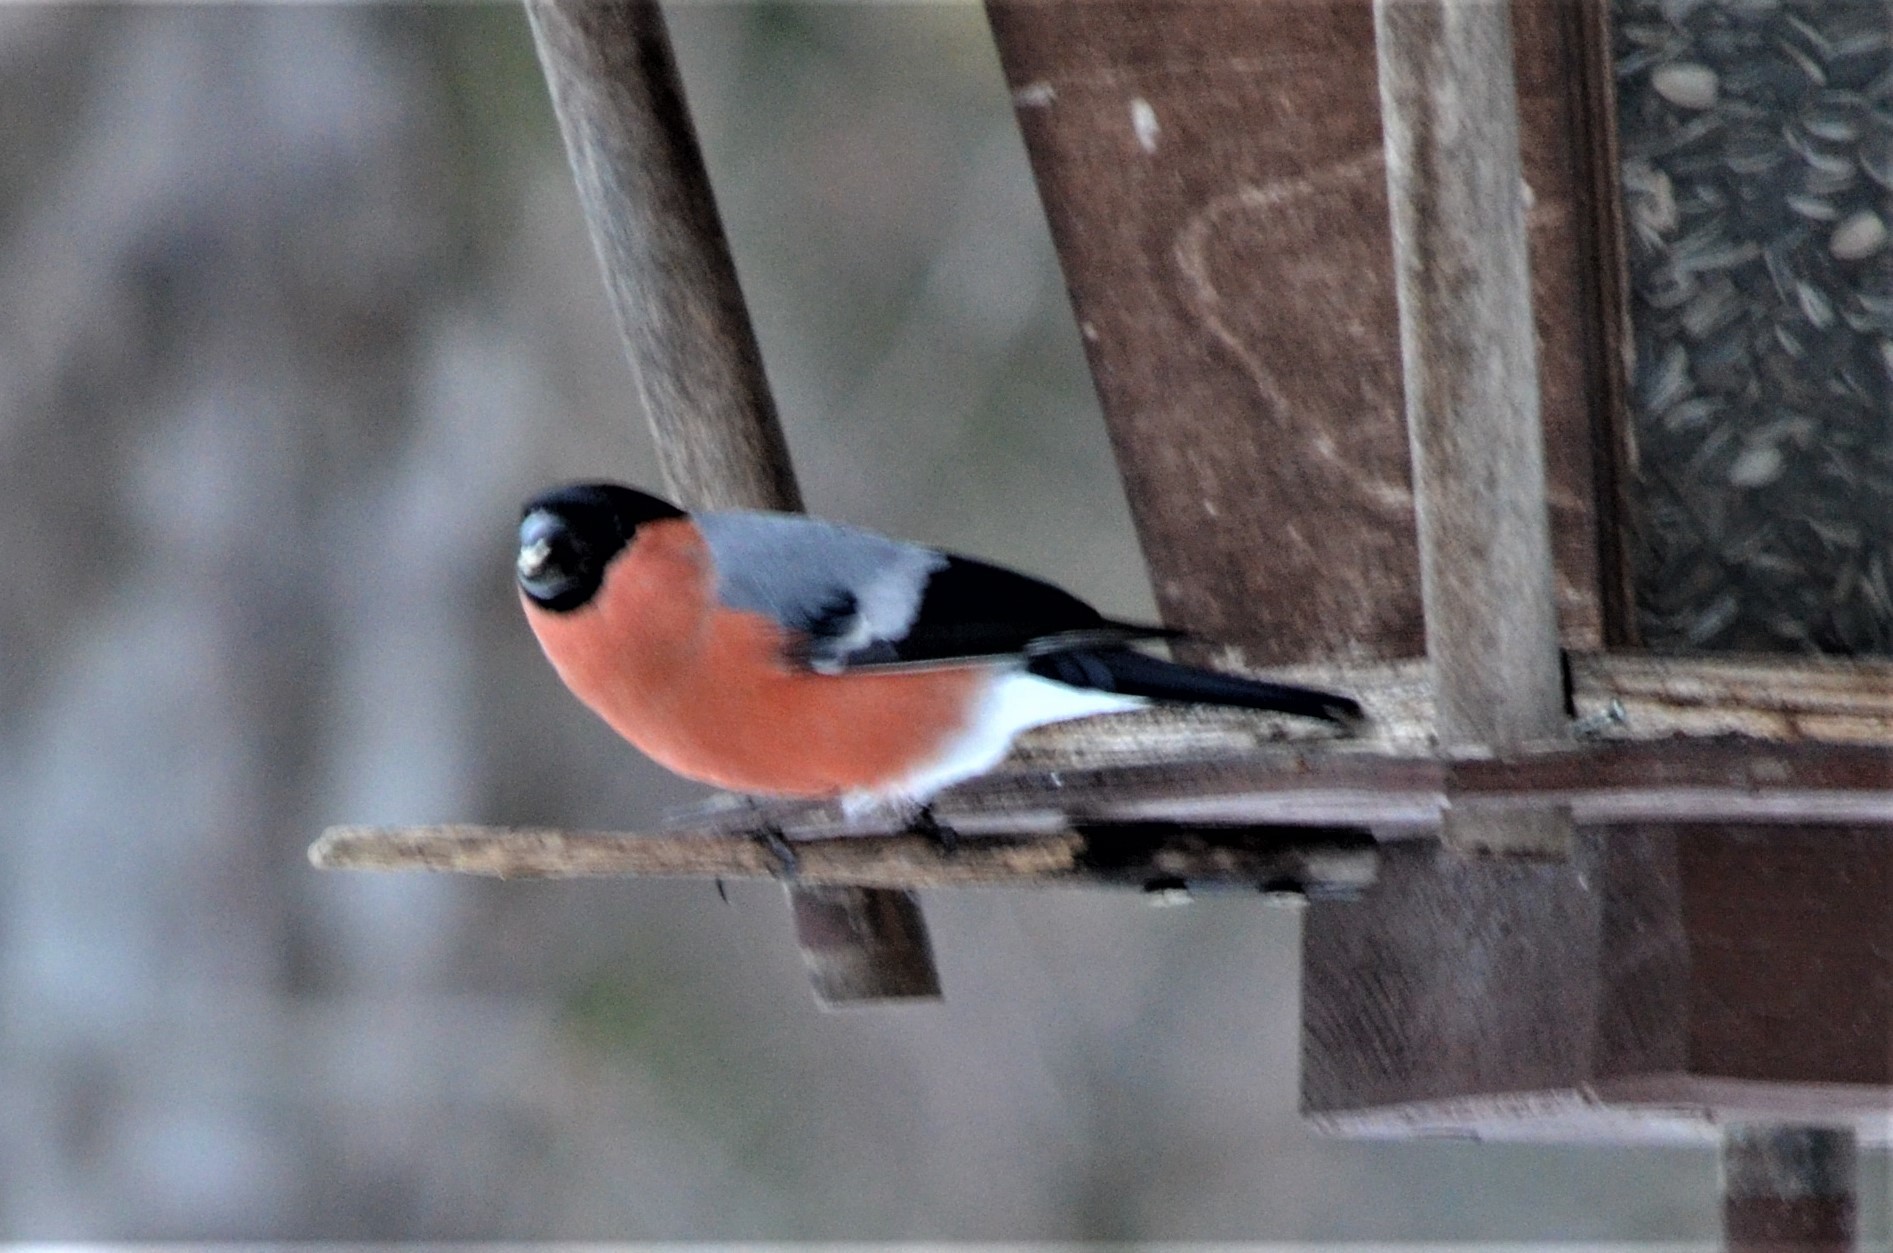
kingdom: Animalia
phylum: Chordata
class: Aves
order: Passeriformes
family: Fringillidae
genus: Pyrrhula
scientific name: Pyrrhula pyrrhula
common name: Eurasian bullfinch
